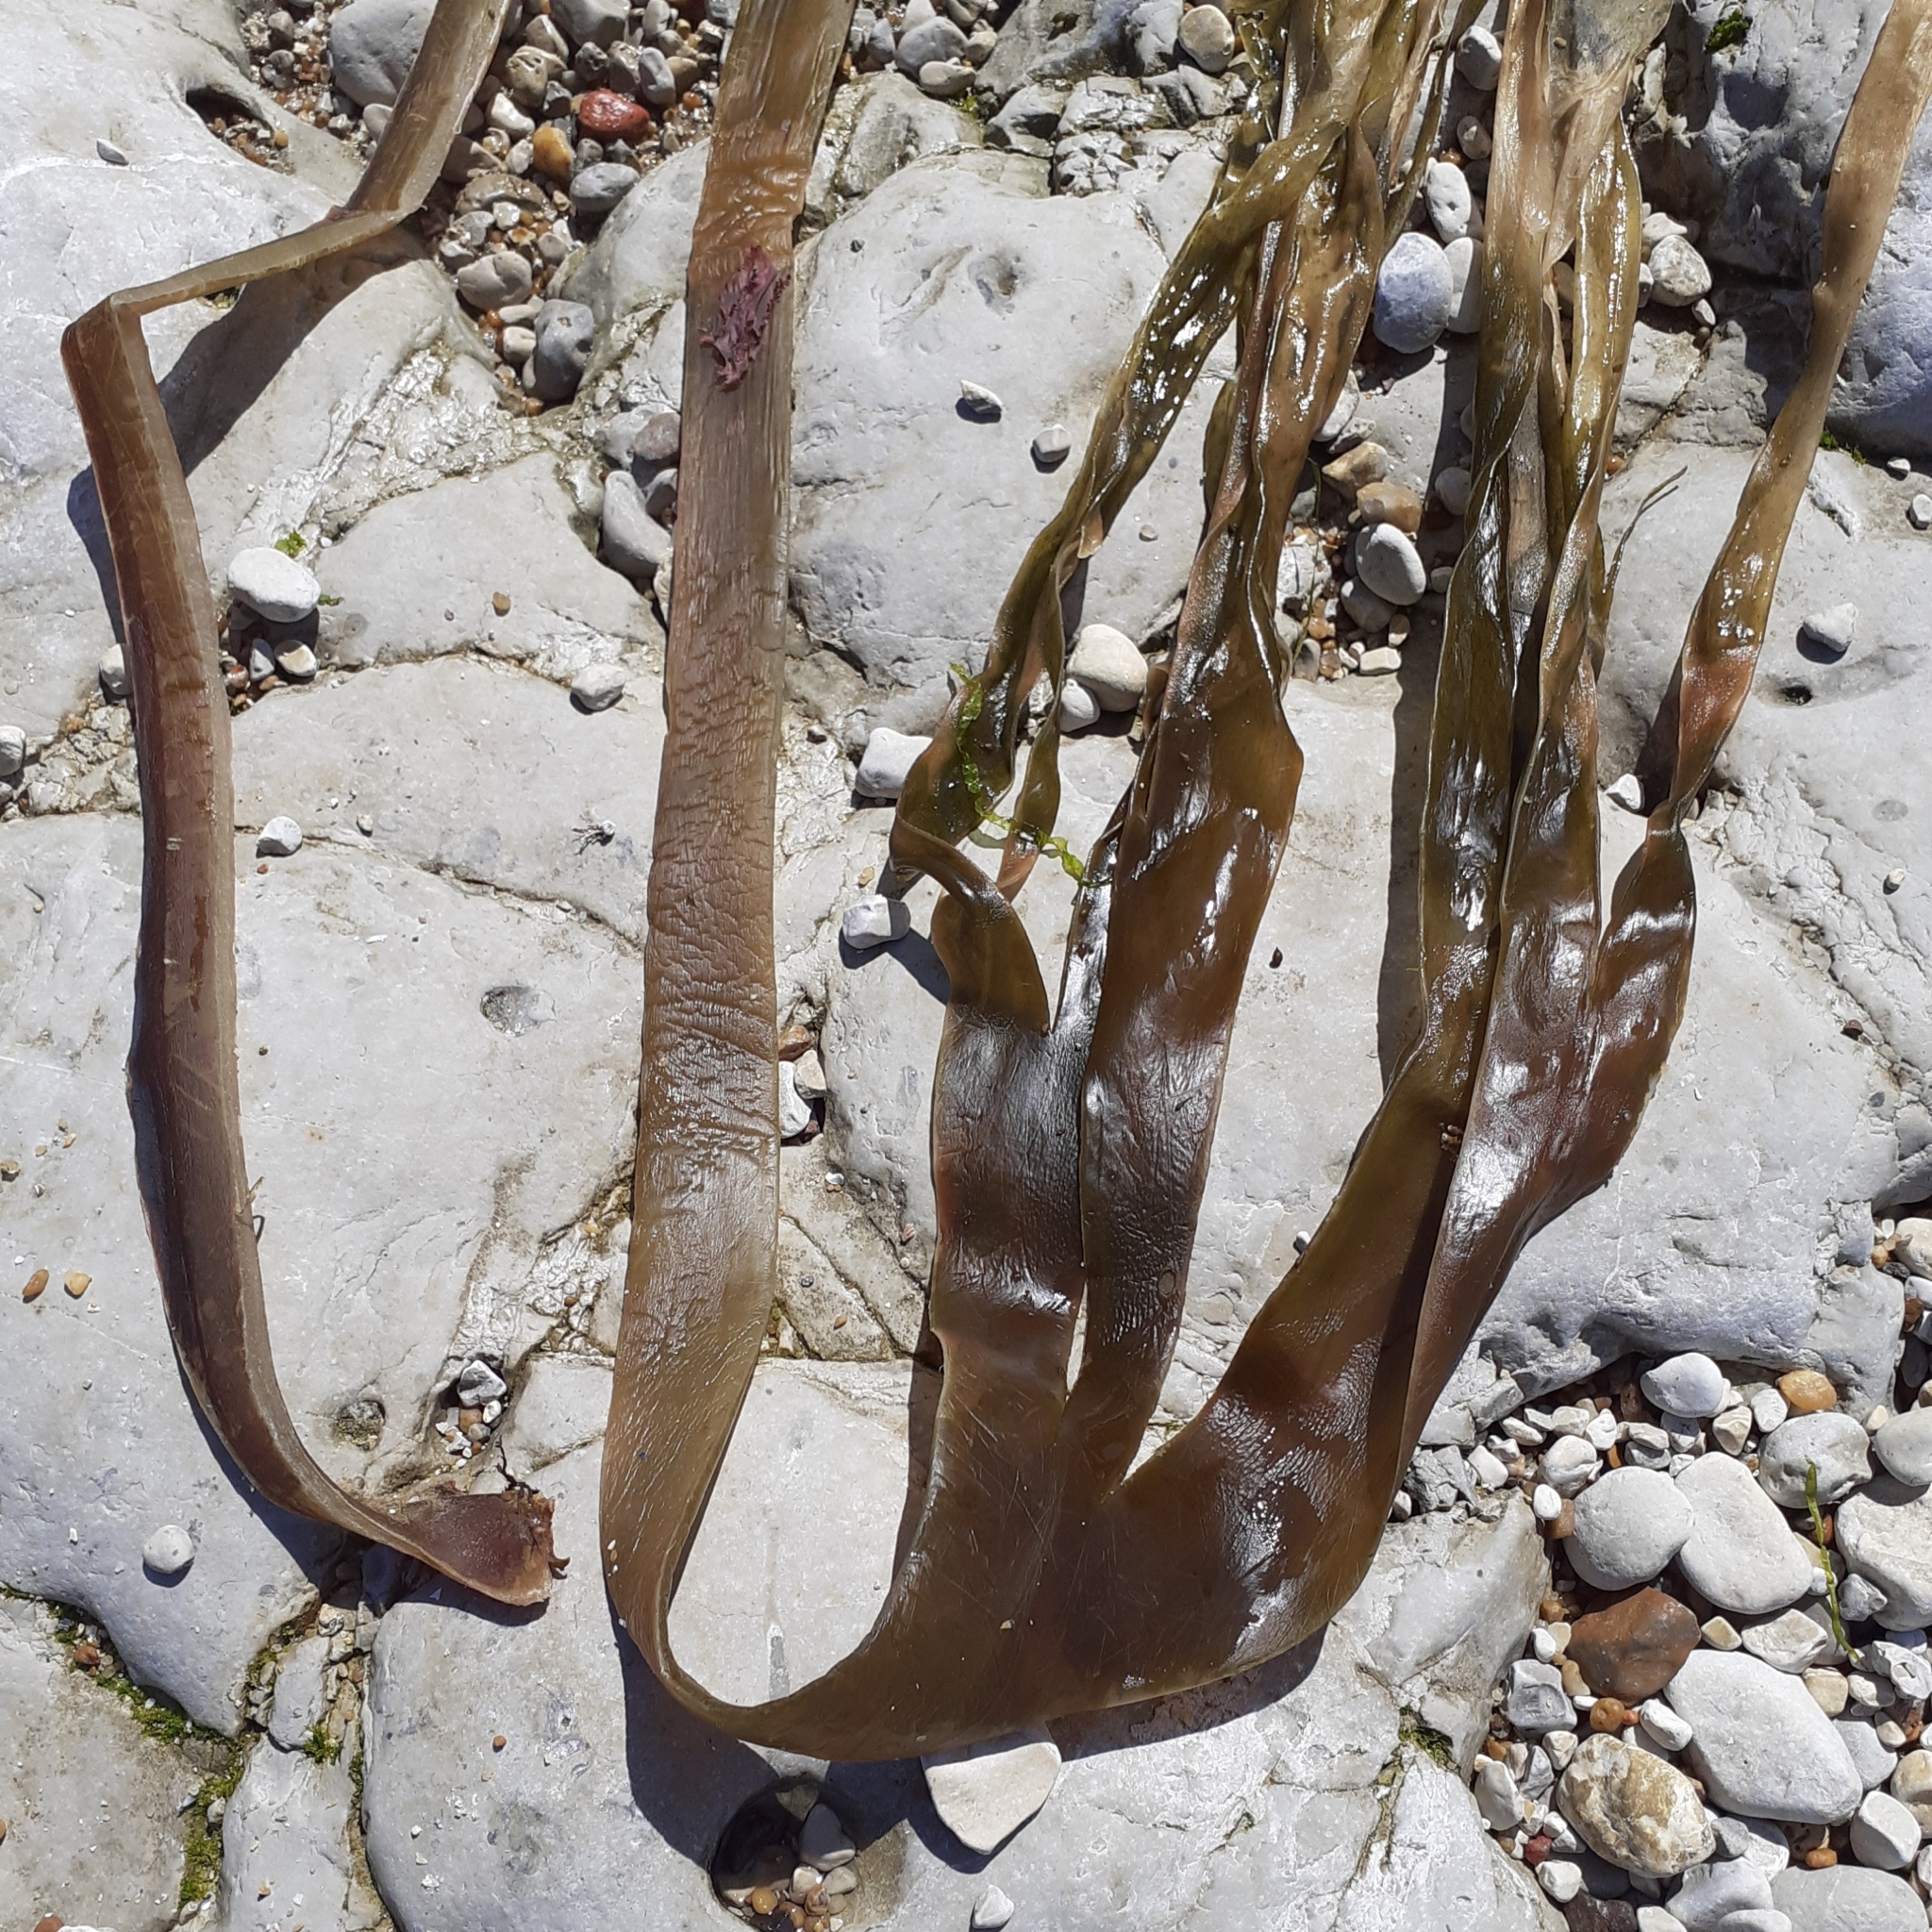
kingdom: Chromista
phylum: Ochrophyta
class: Phaeophyceae
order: Tilopteridales
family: Phyllariaceae
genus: Saccorhiza
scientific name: Saccorhiza polyschides
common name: Furbelows
